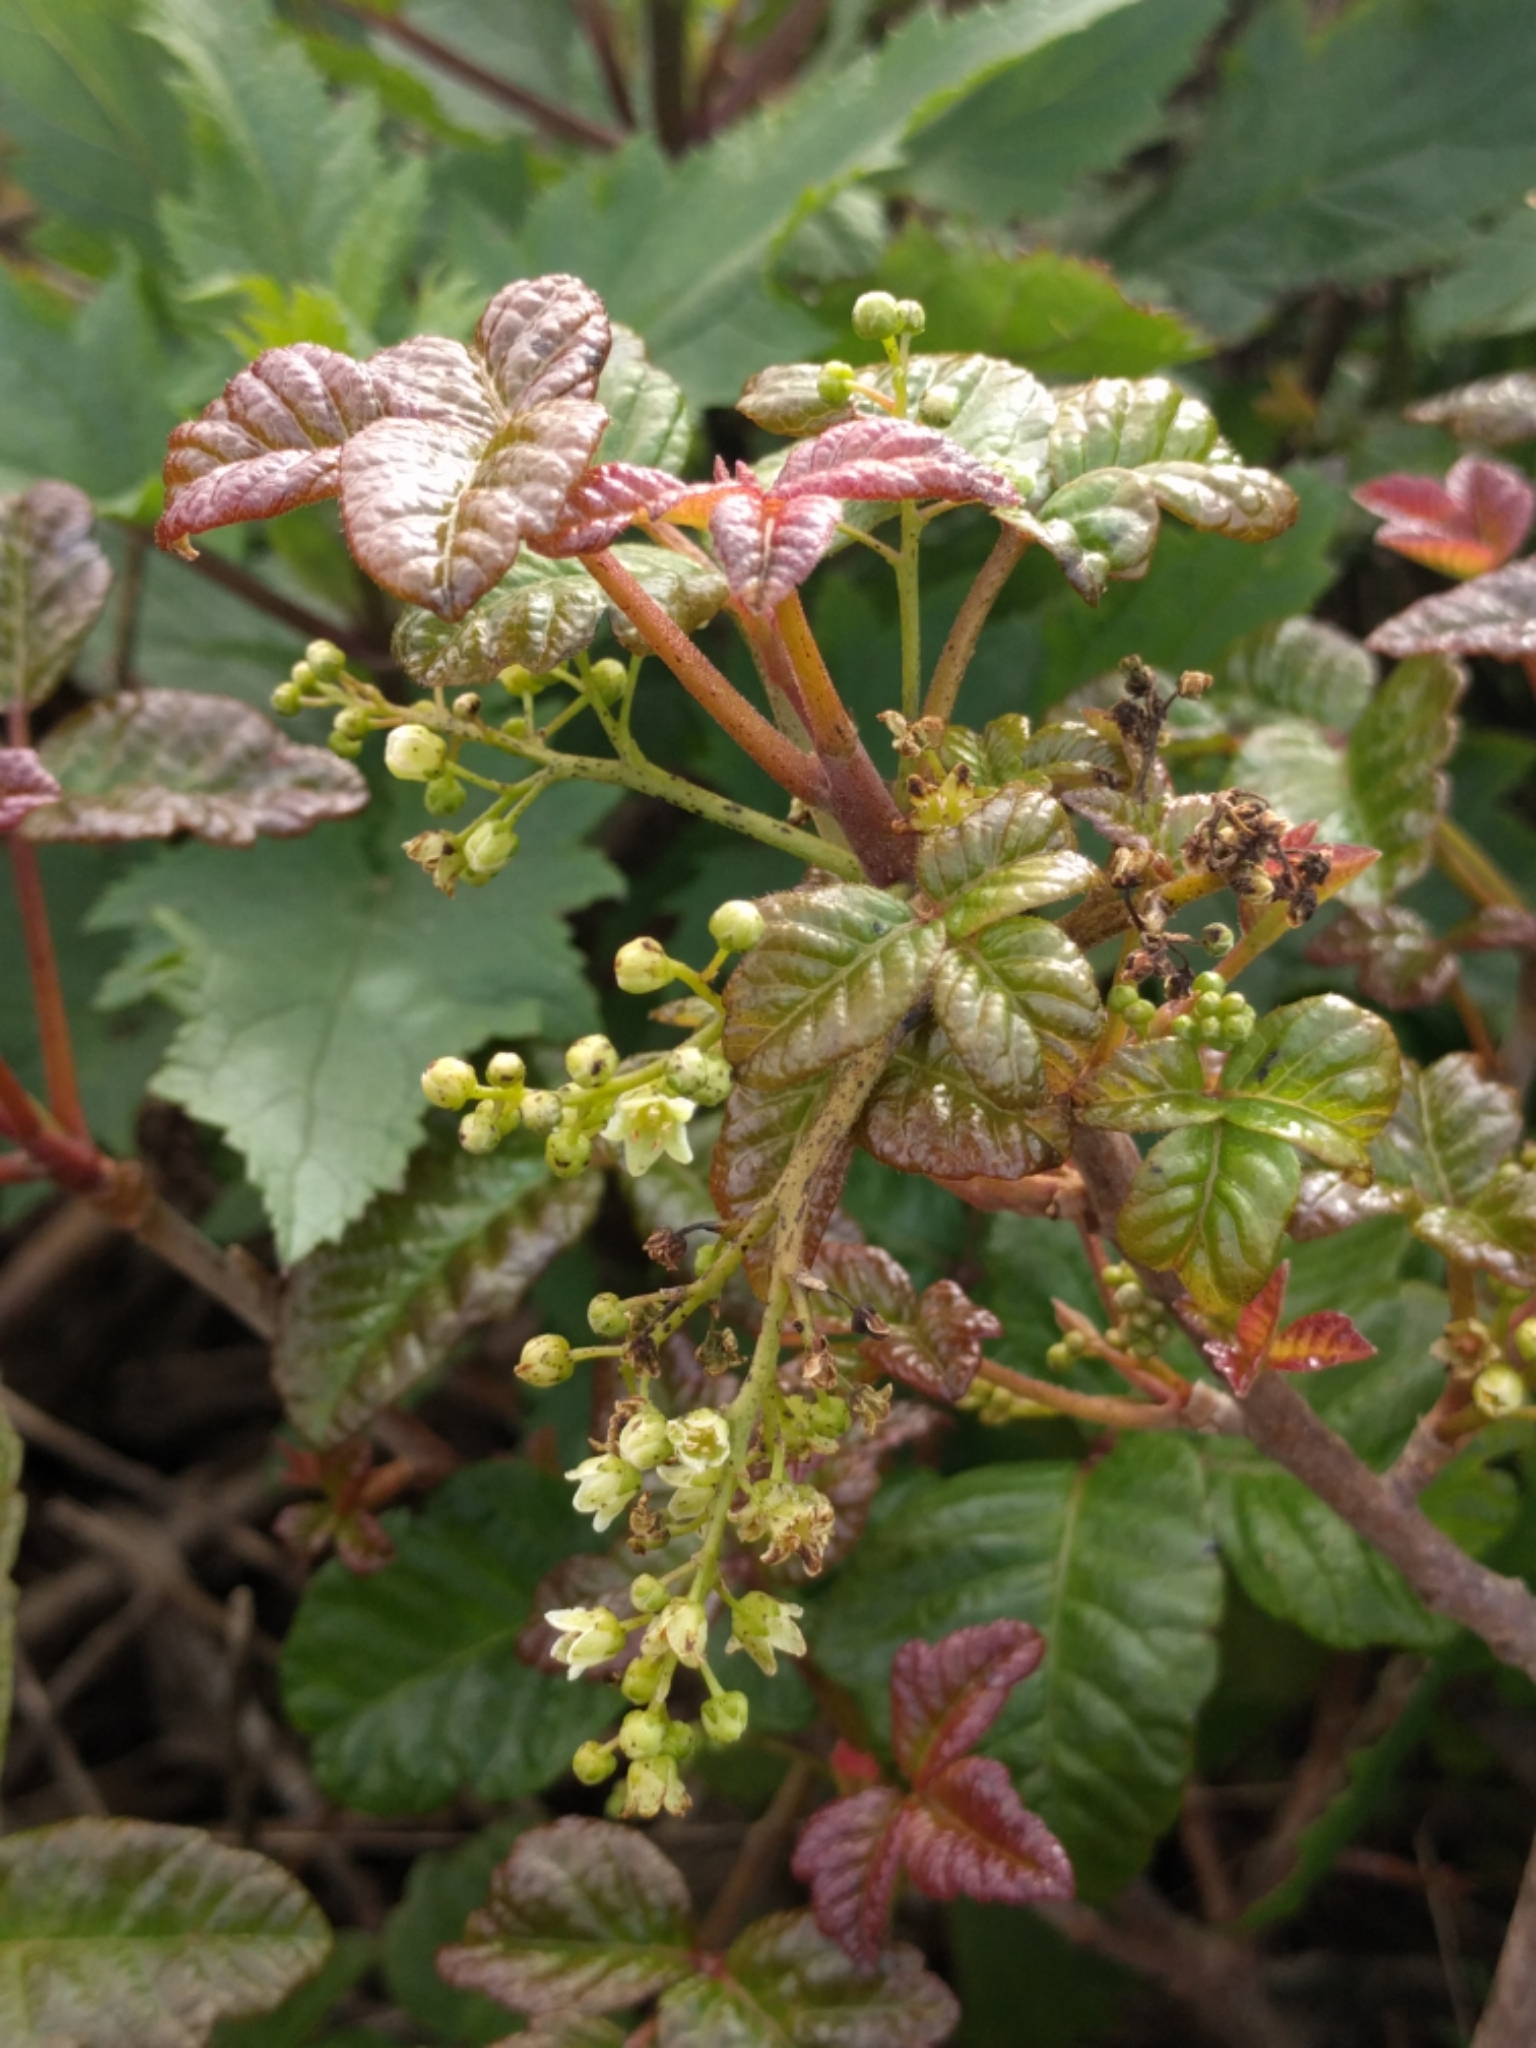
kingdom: Plantae
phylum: Tracheophyta
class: Magnoliopsida
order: Sapindales
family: Anacardiaceae
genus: Toxicodendron
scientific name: Toxicodendron diversilobum
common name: Pacific poison-oak
